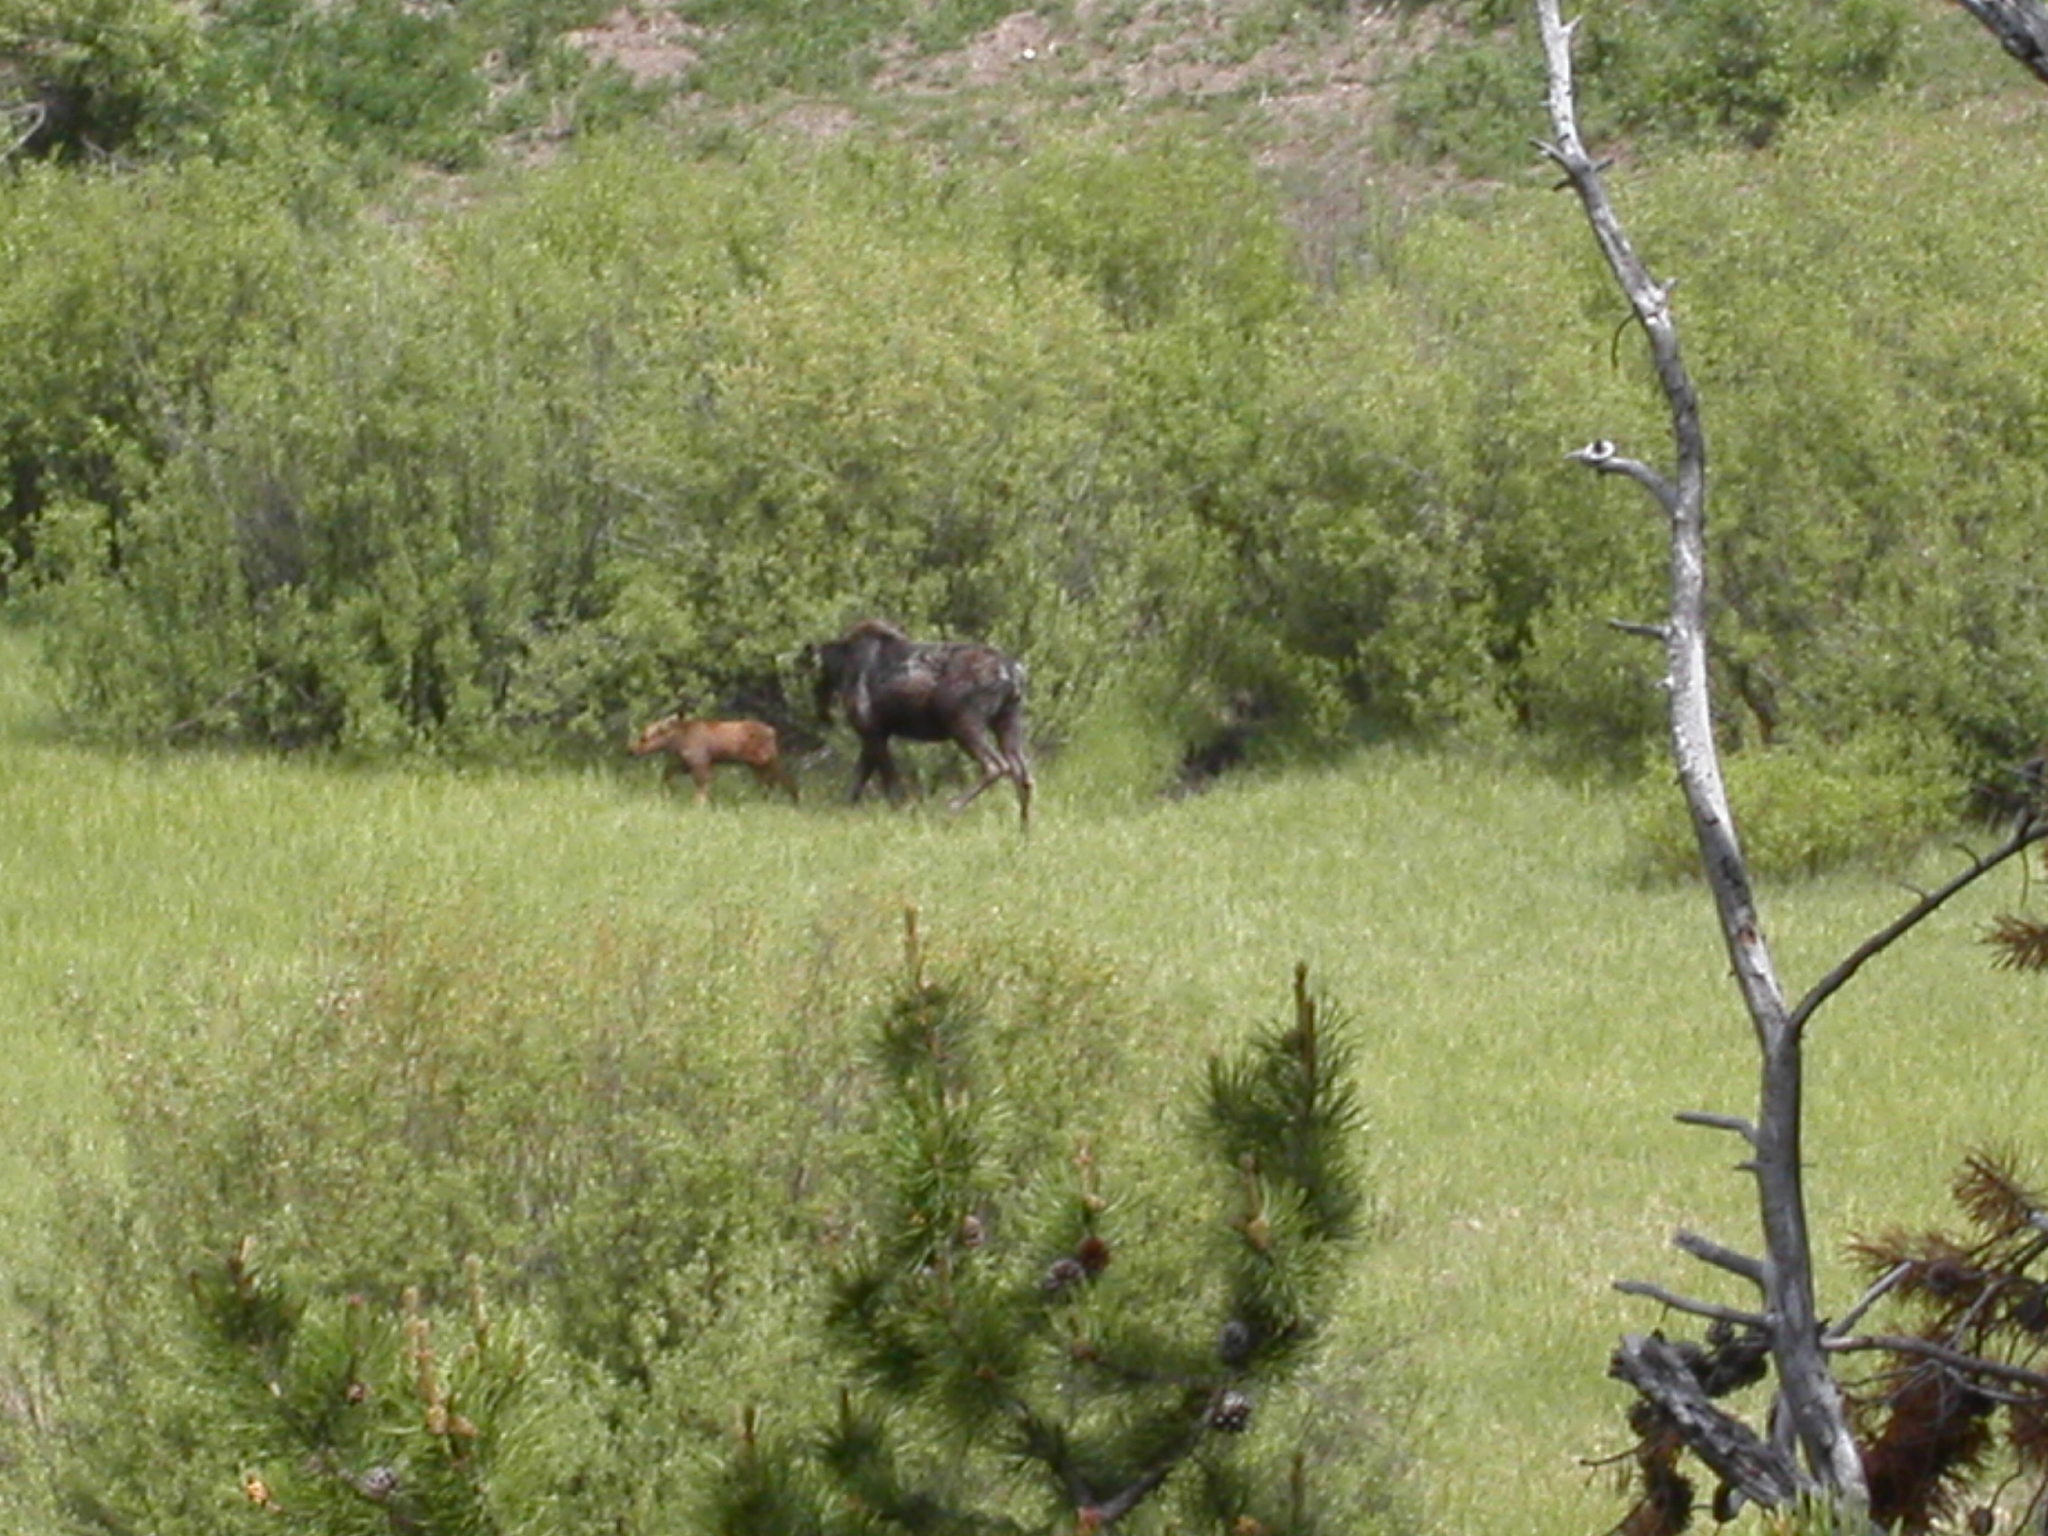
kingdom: Animalia
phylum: Chordata
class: Mammalia
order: Artiodactyla
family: Cervidae
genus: Alces
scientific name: Alces alces
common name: Moose
